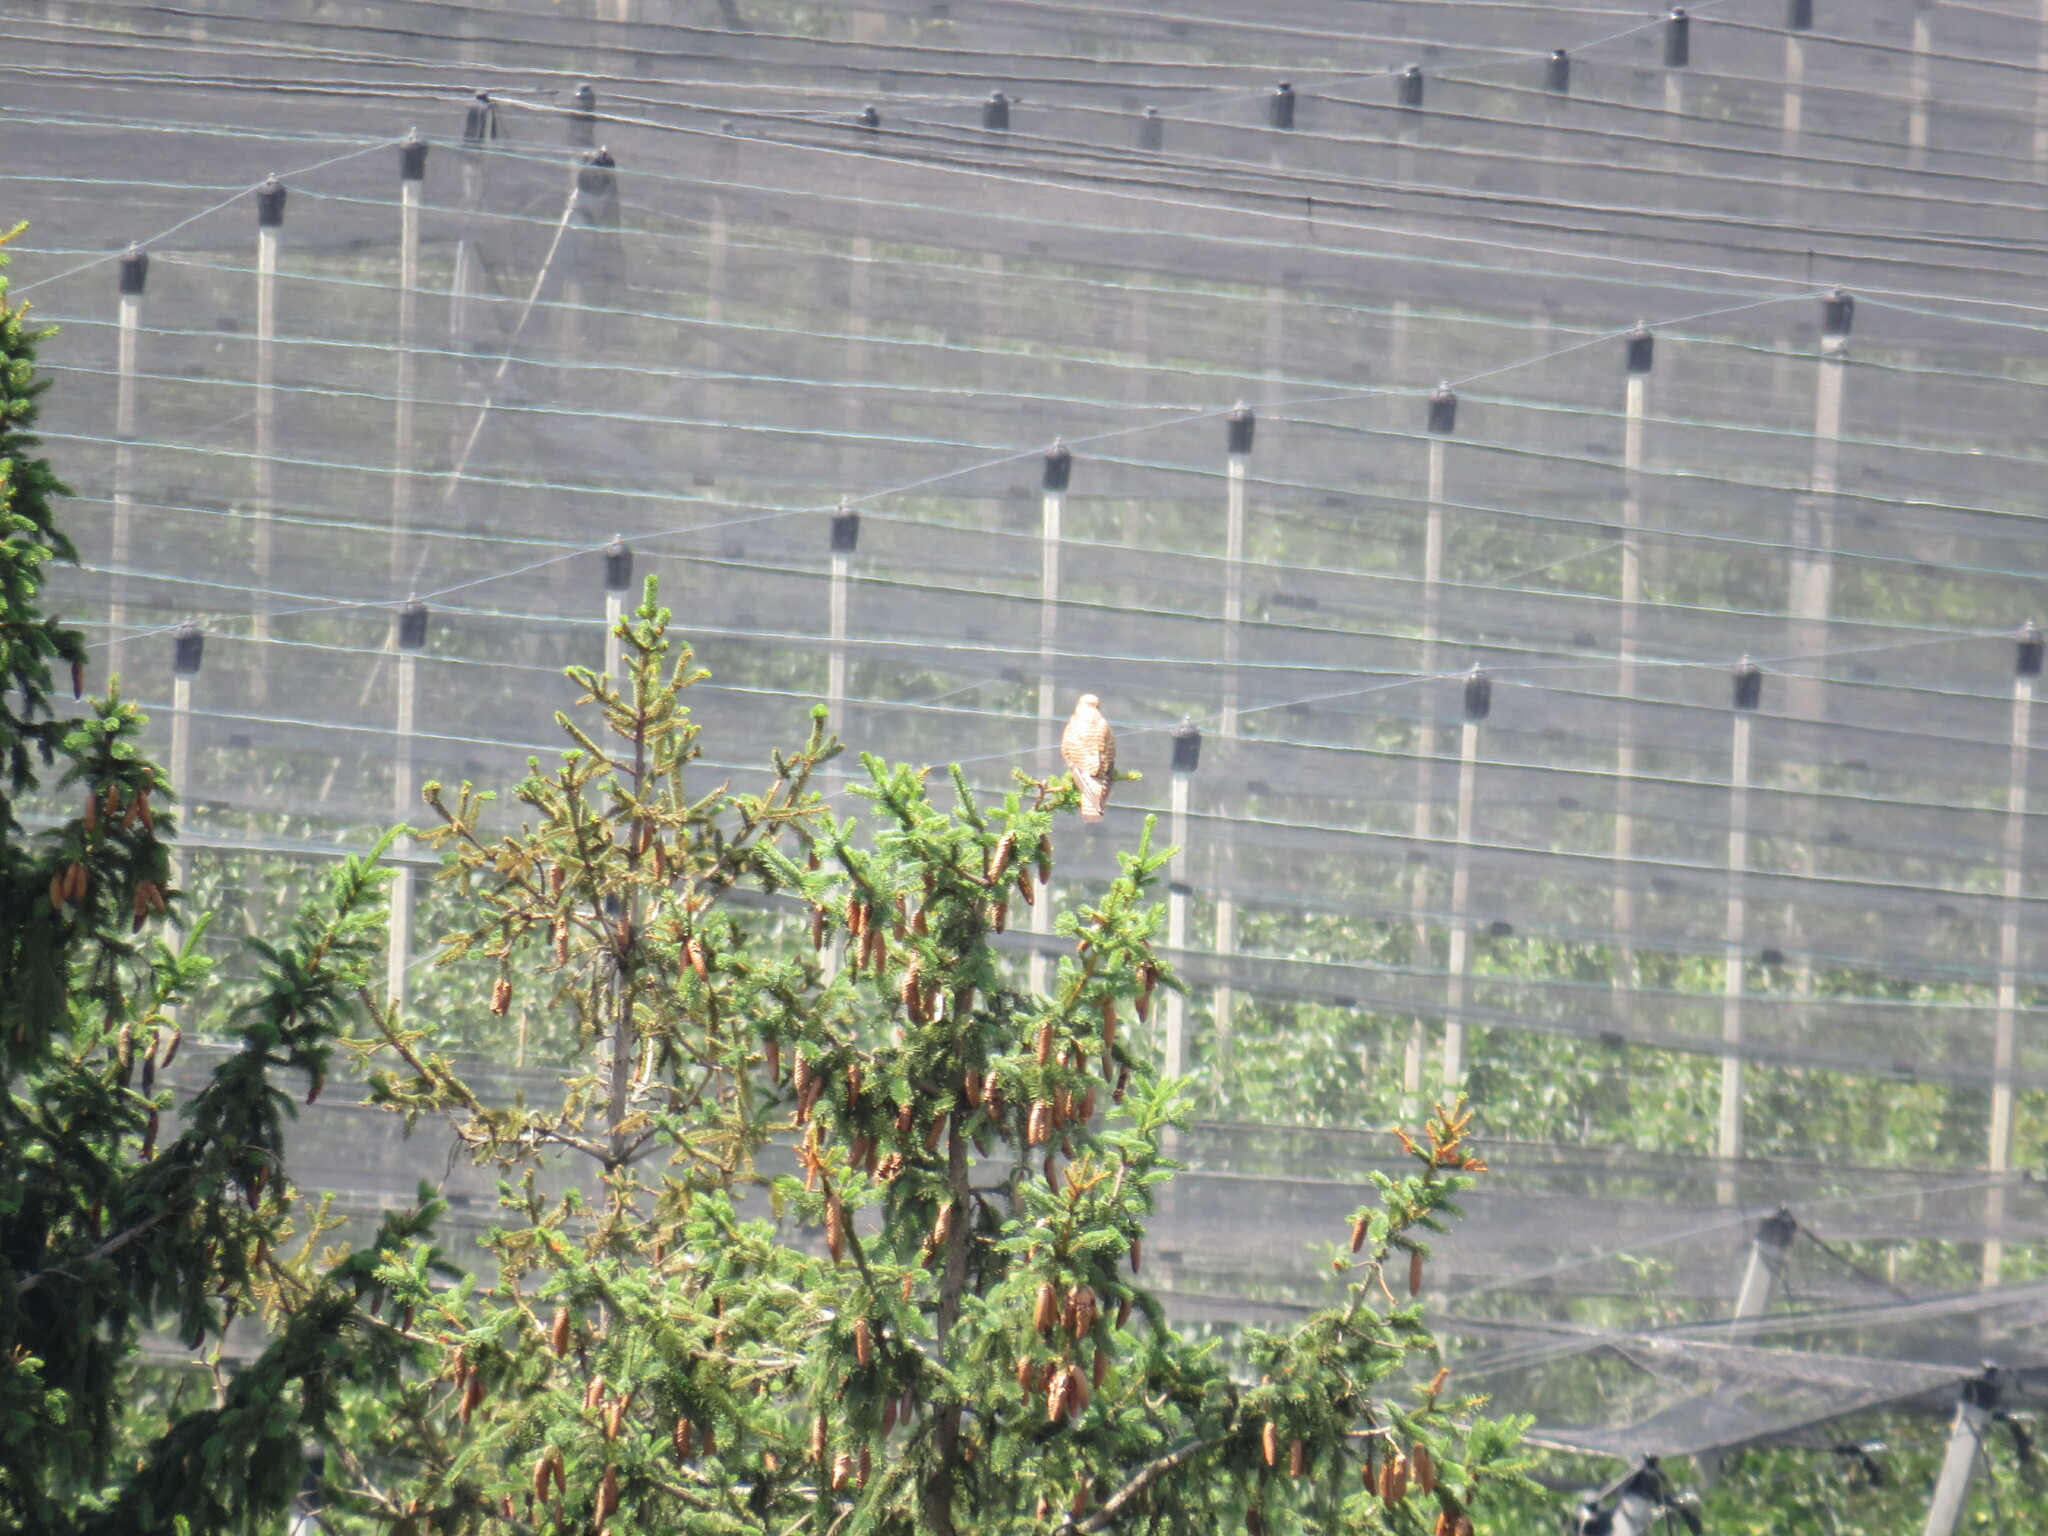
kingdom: Animalia
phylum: Chordata
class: Aves
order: Falconiformes
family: Falconidae
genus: Falco
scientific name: Falco tinnunculus
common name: Common kestrel
